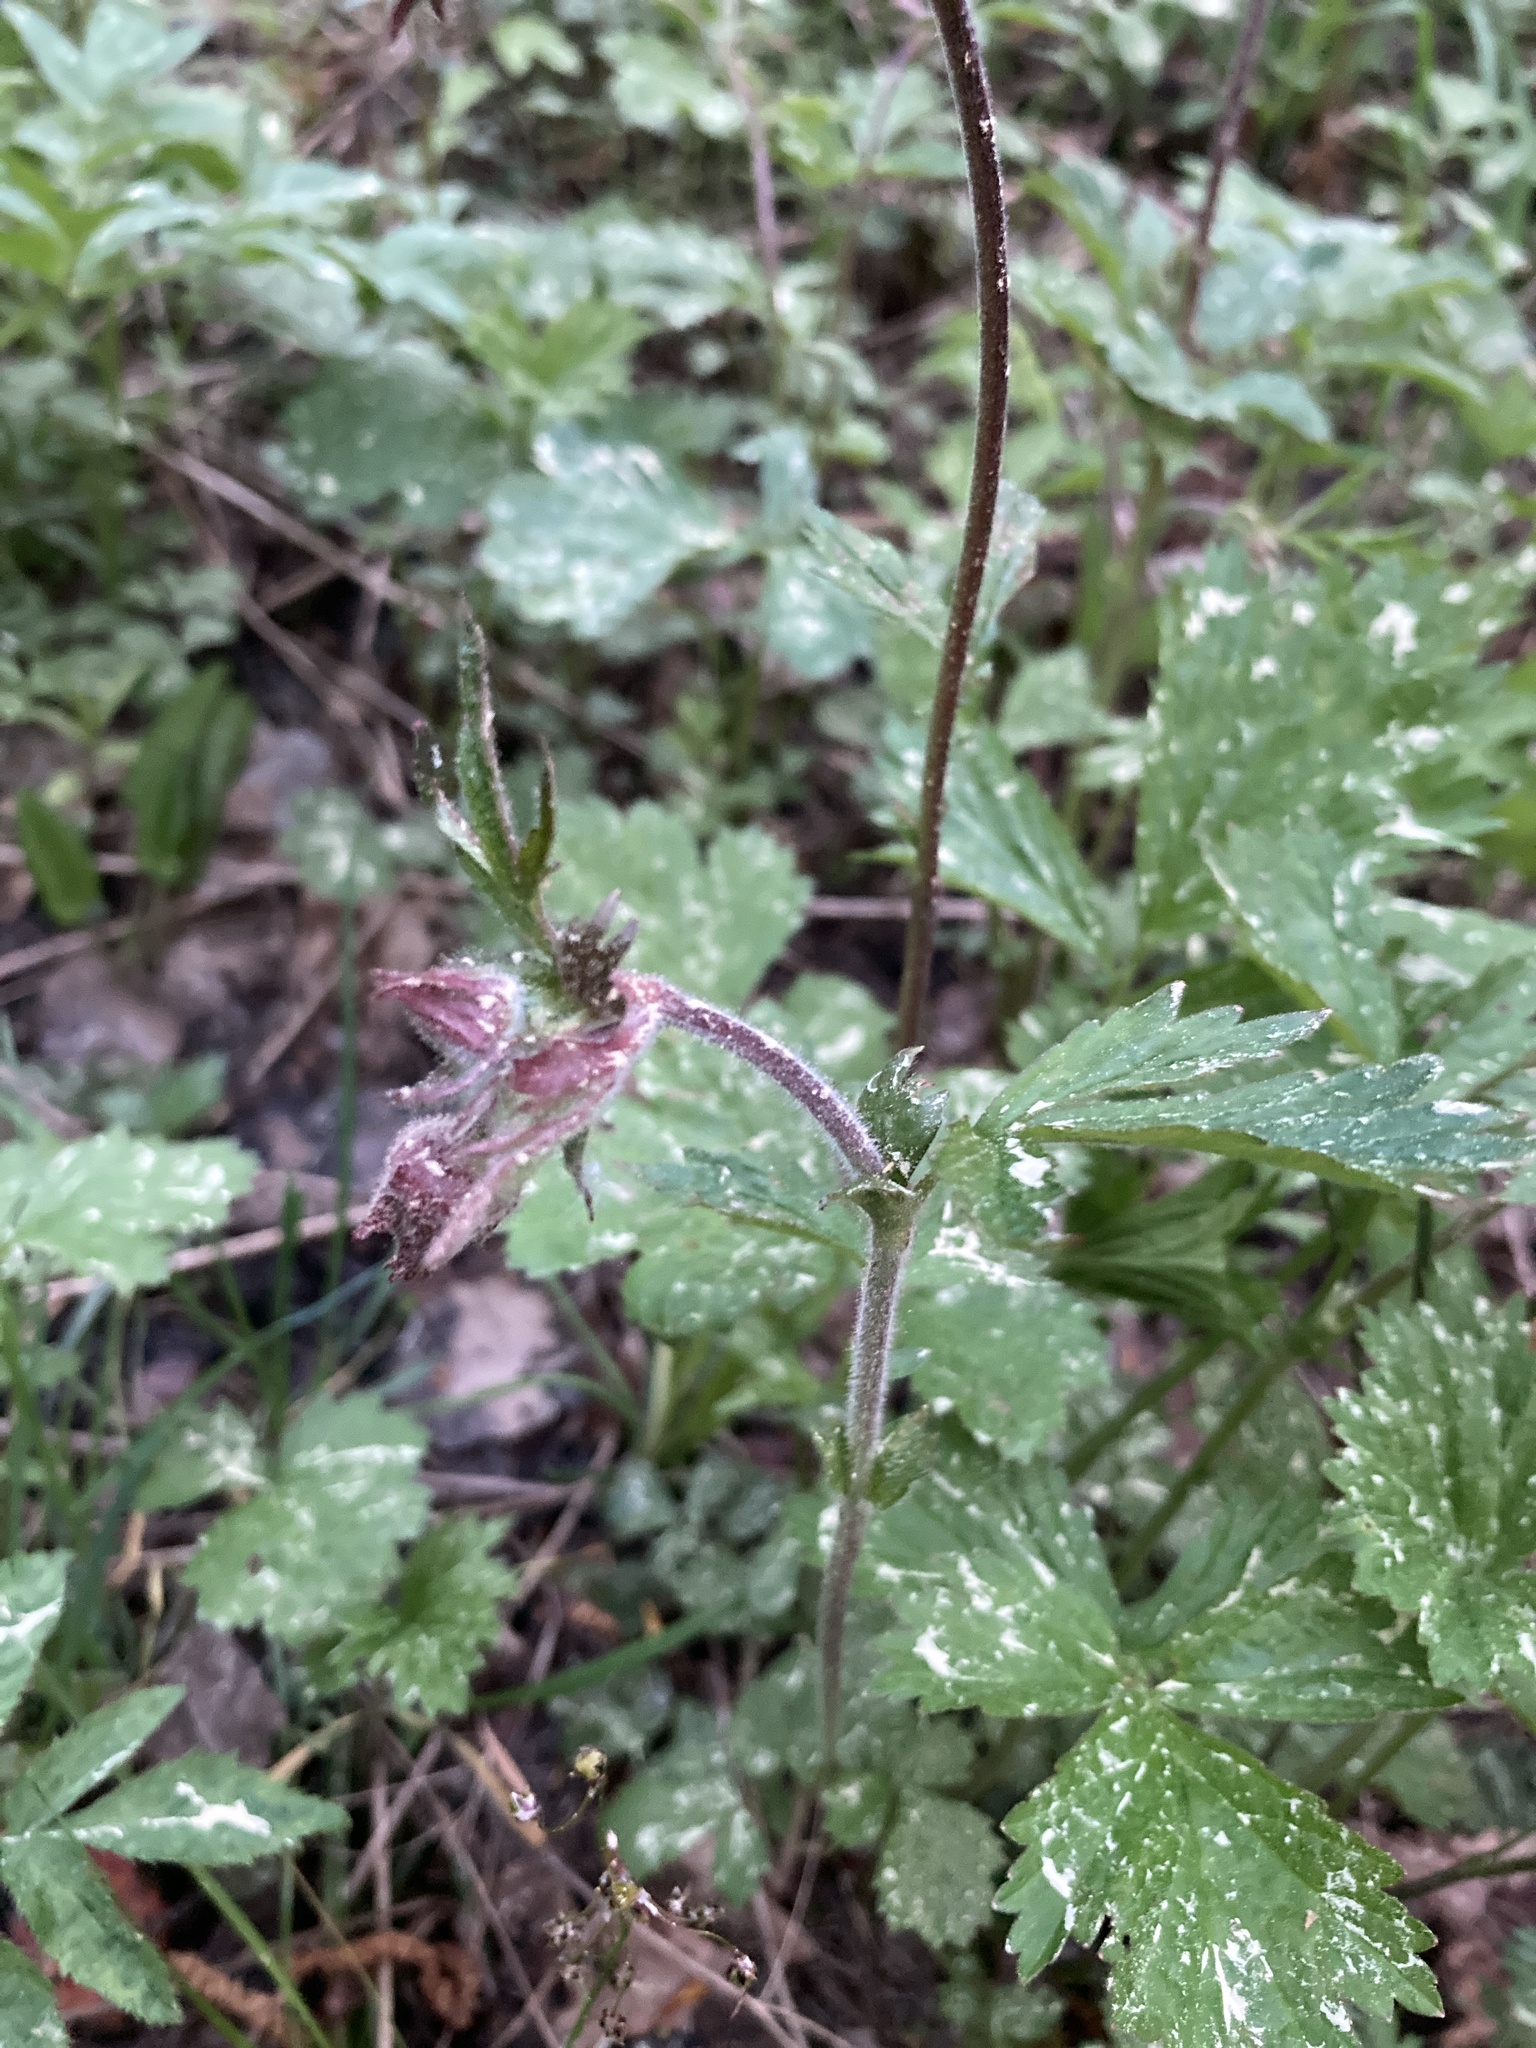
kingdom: Plantae
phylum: Tracheophyta
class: Magnoliopsida
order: Rosales
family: Rosaceae
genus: Geum
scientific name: Geum rivale
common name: Water avens
